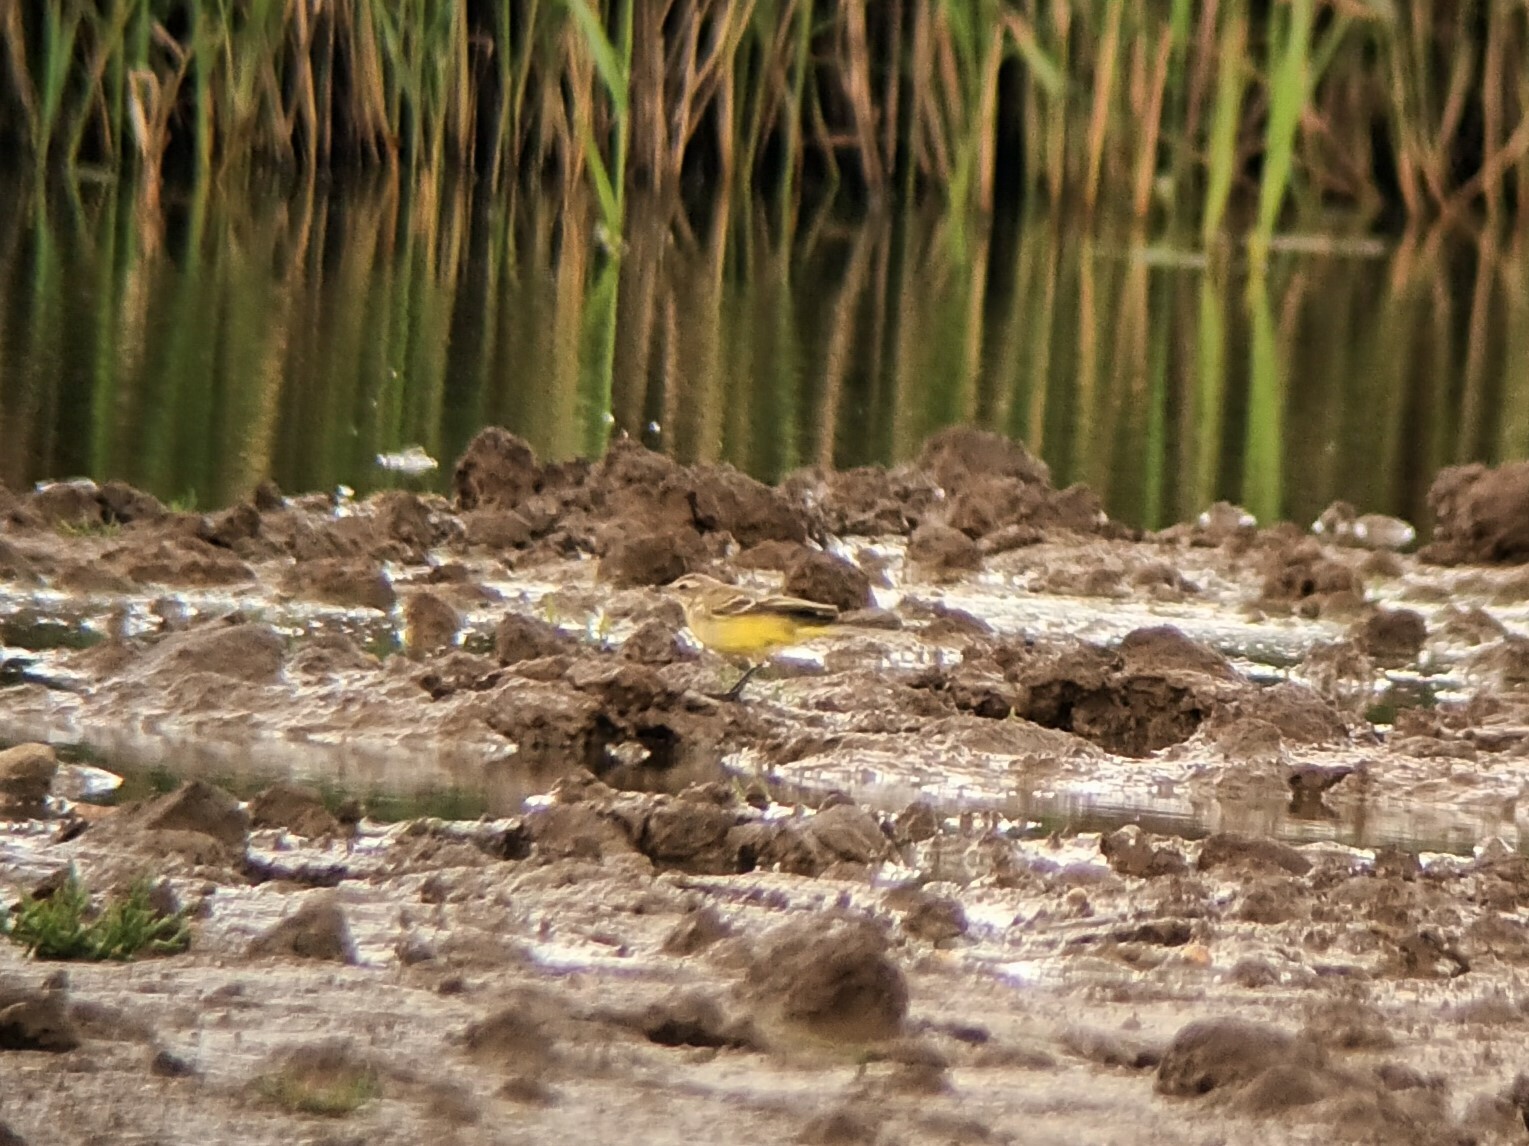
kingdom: Animalia
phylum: Chordata
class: Aves
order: Passeriformes
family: Motacillidae
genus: Motacilla
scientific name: Motacilla flava
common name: Western yellow wagtail
